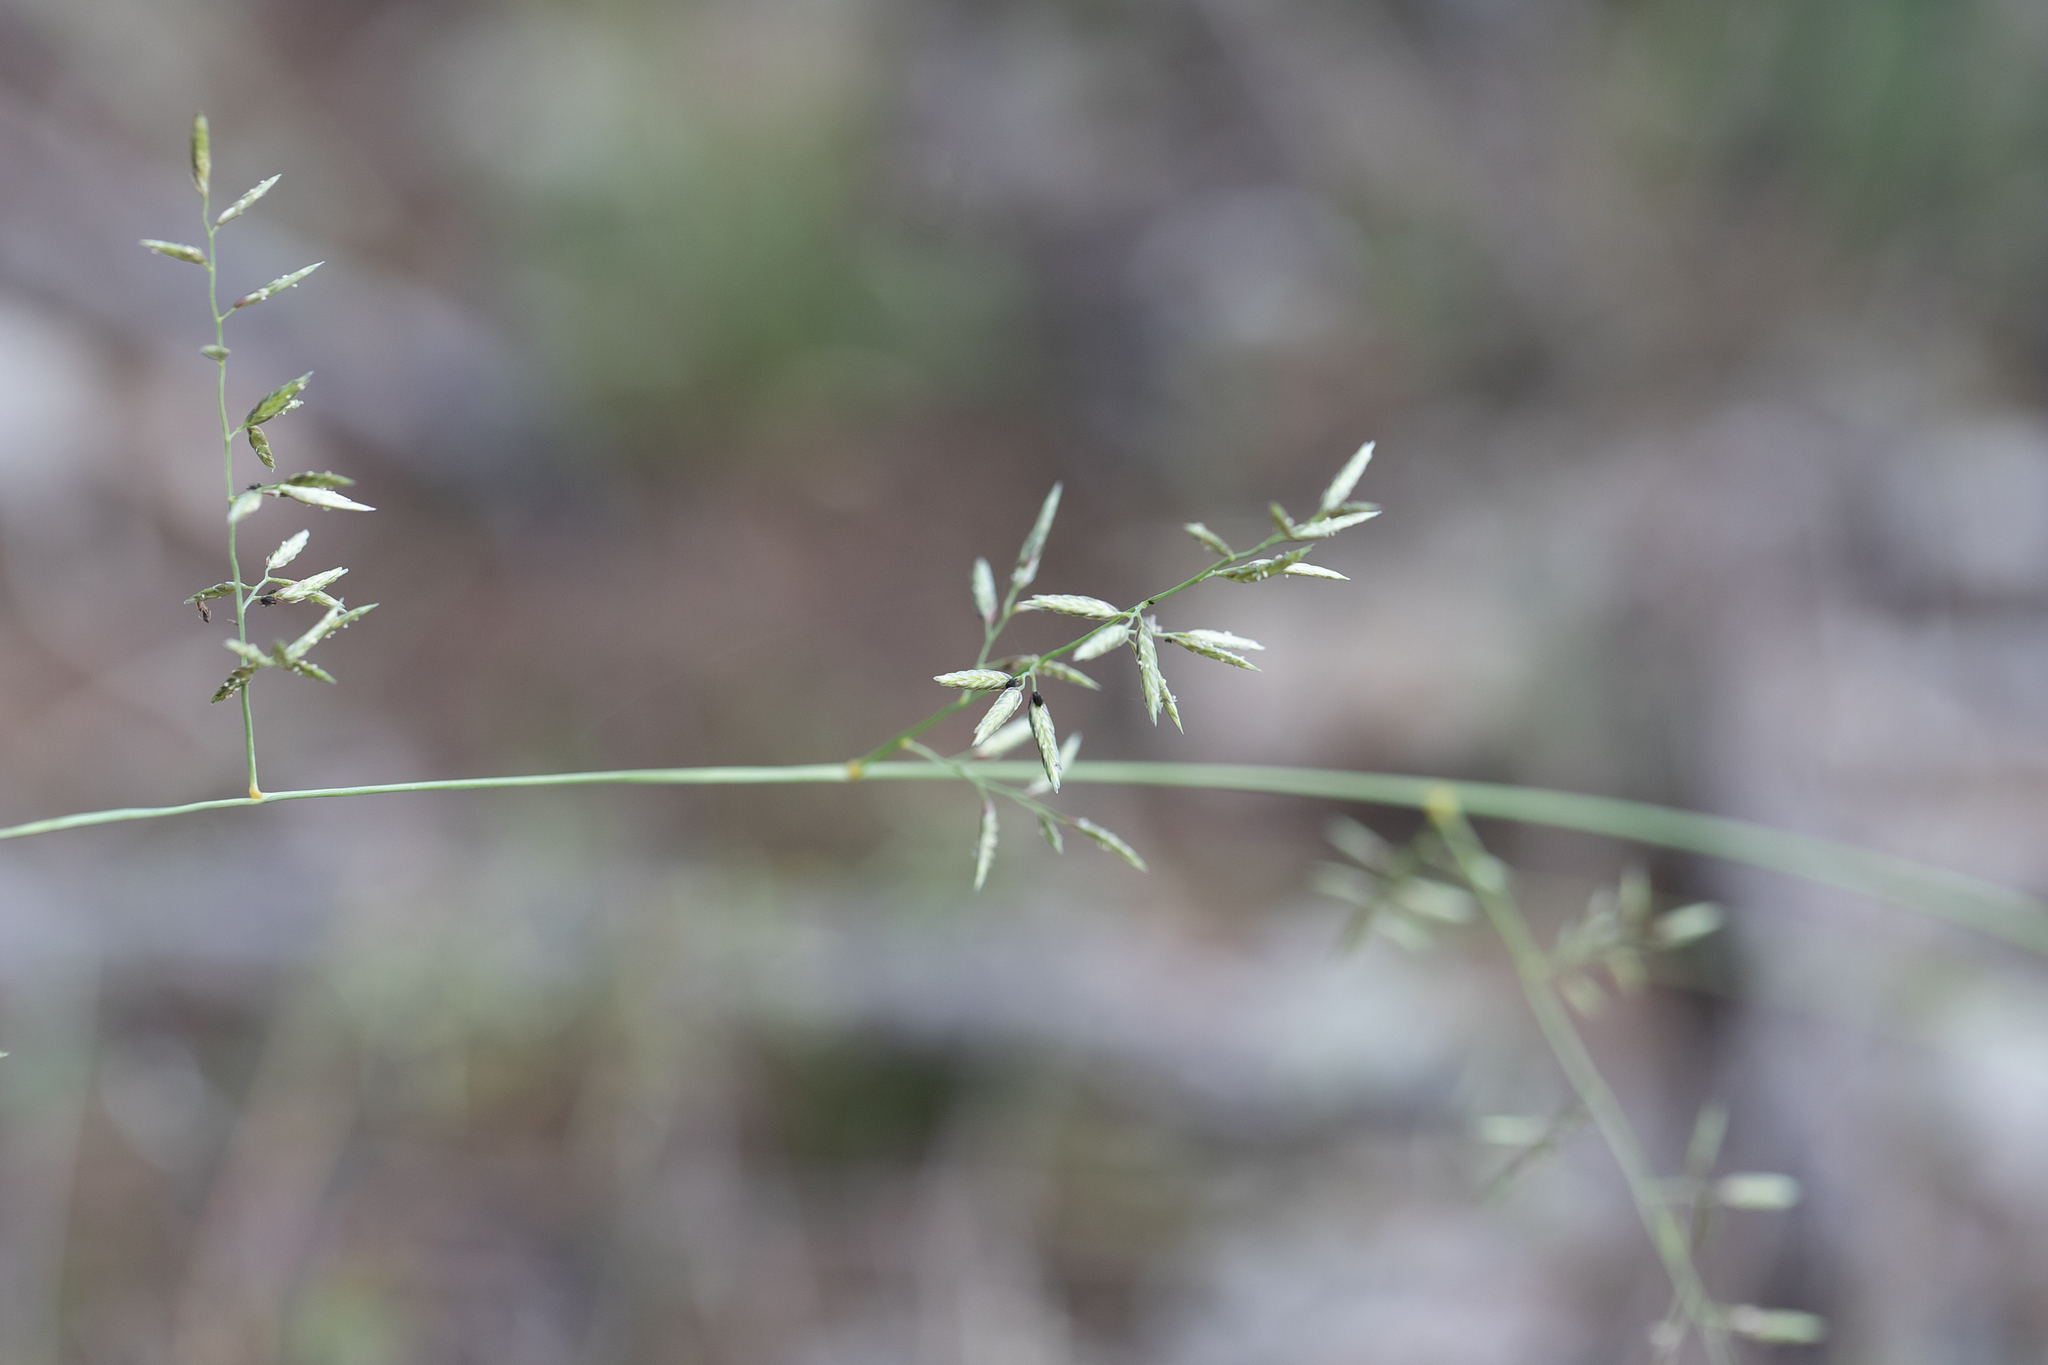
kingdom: Plantae
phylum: Tracheophyta
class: Liliopsida
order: Poales
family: Poaceae
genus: Eragrostis
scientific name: Eragrostis alveiformis
